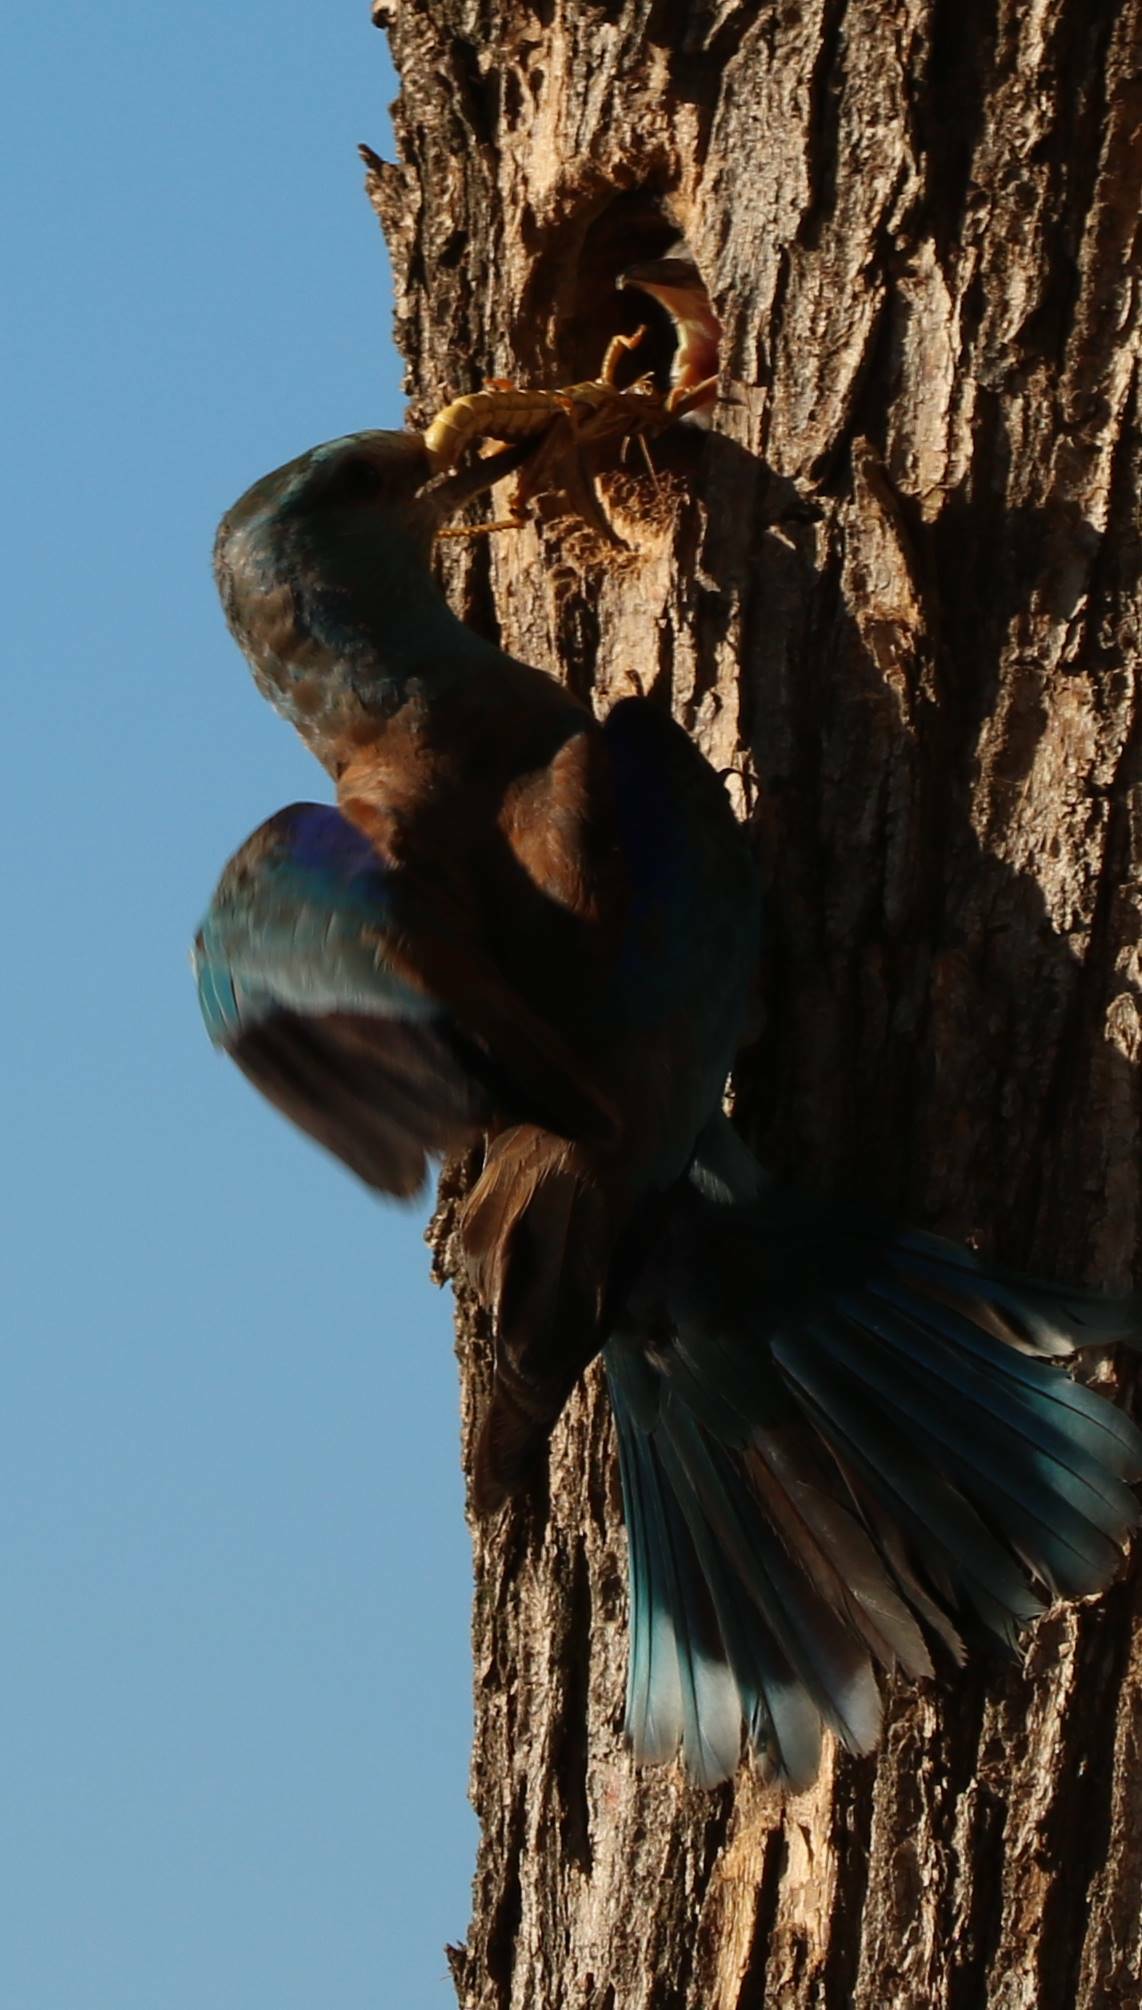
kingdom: Animalia
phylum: Chordata
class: Aves
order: Coraciiformes
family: Coraciidae
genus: Coracias
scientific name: Coracias garrulus
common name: European roller
